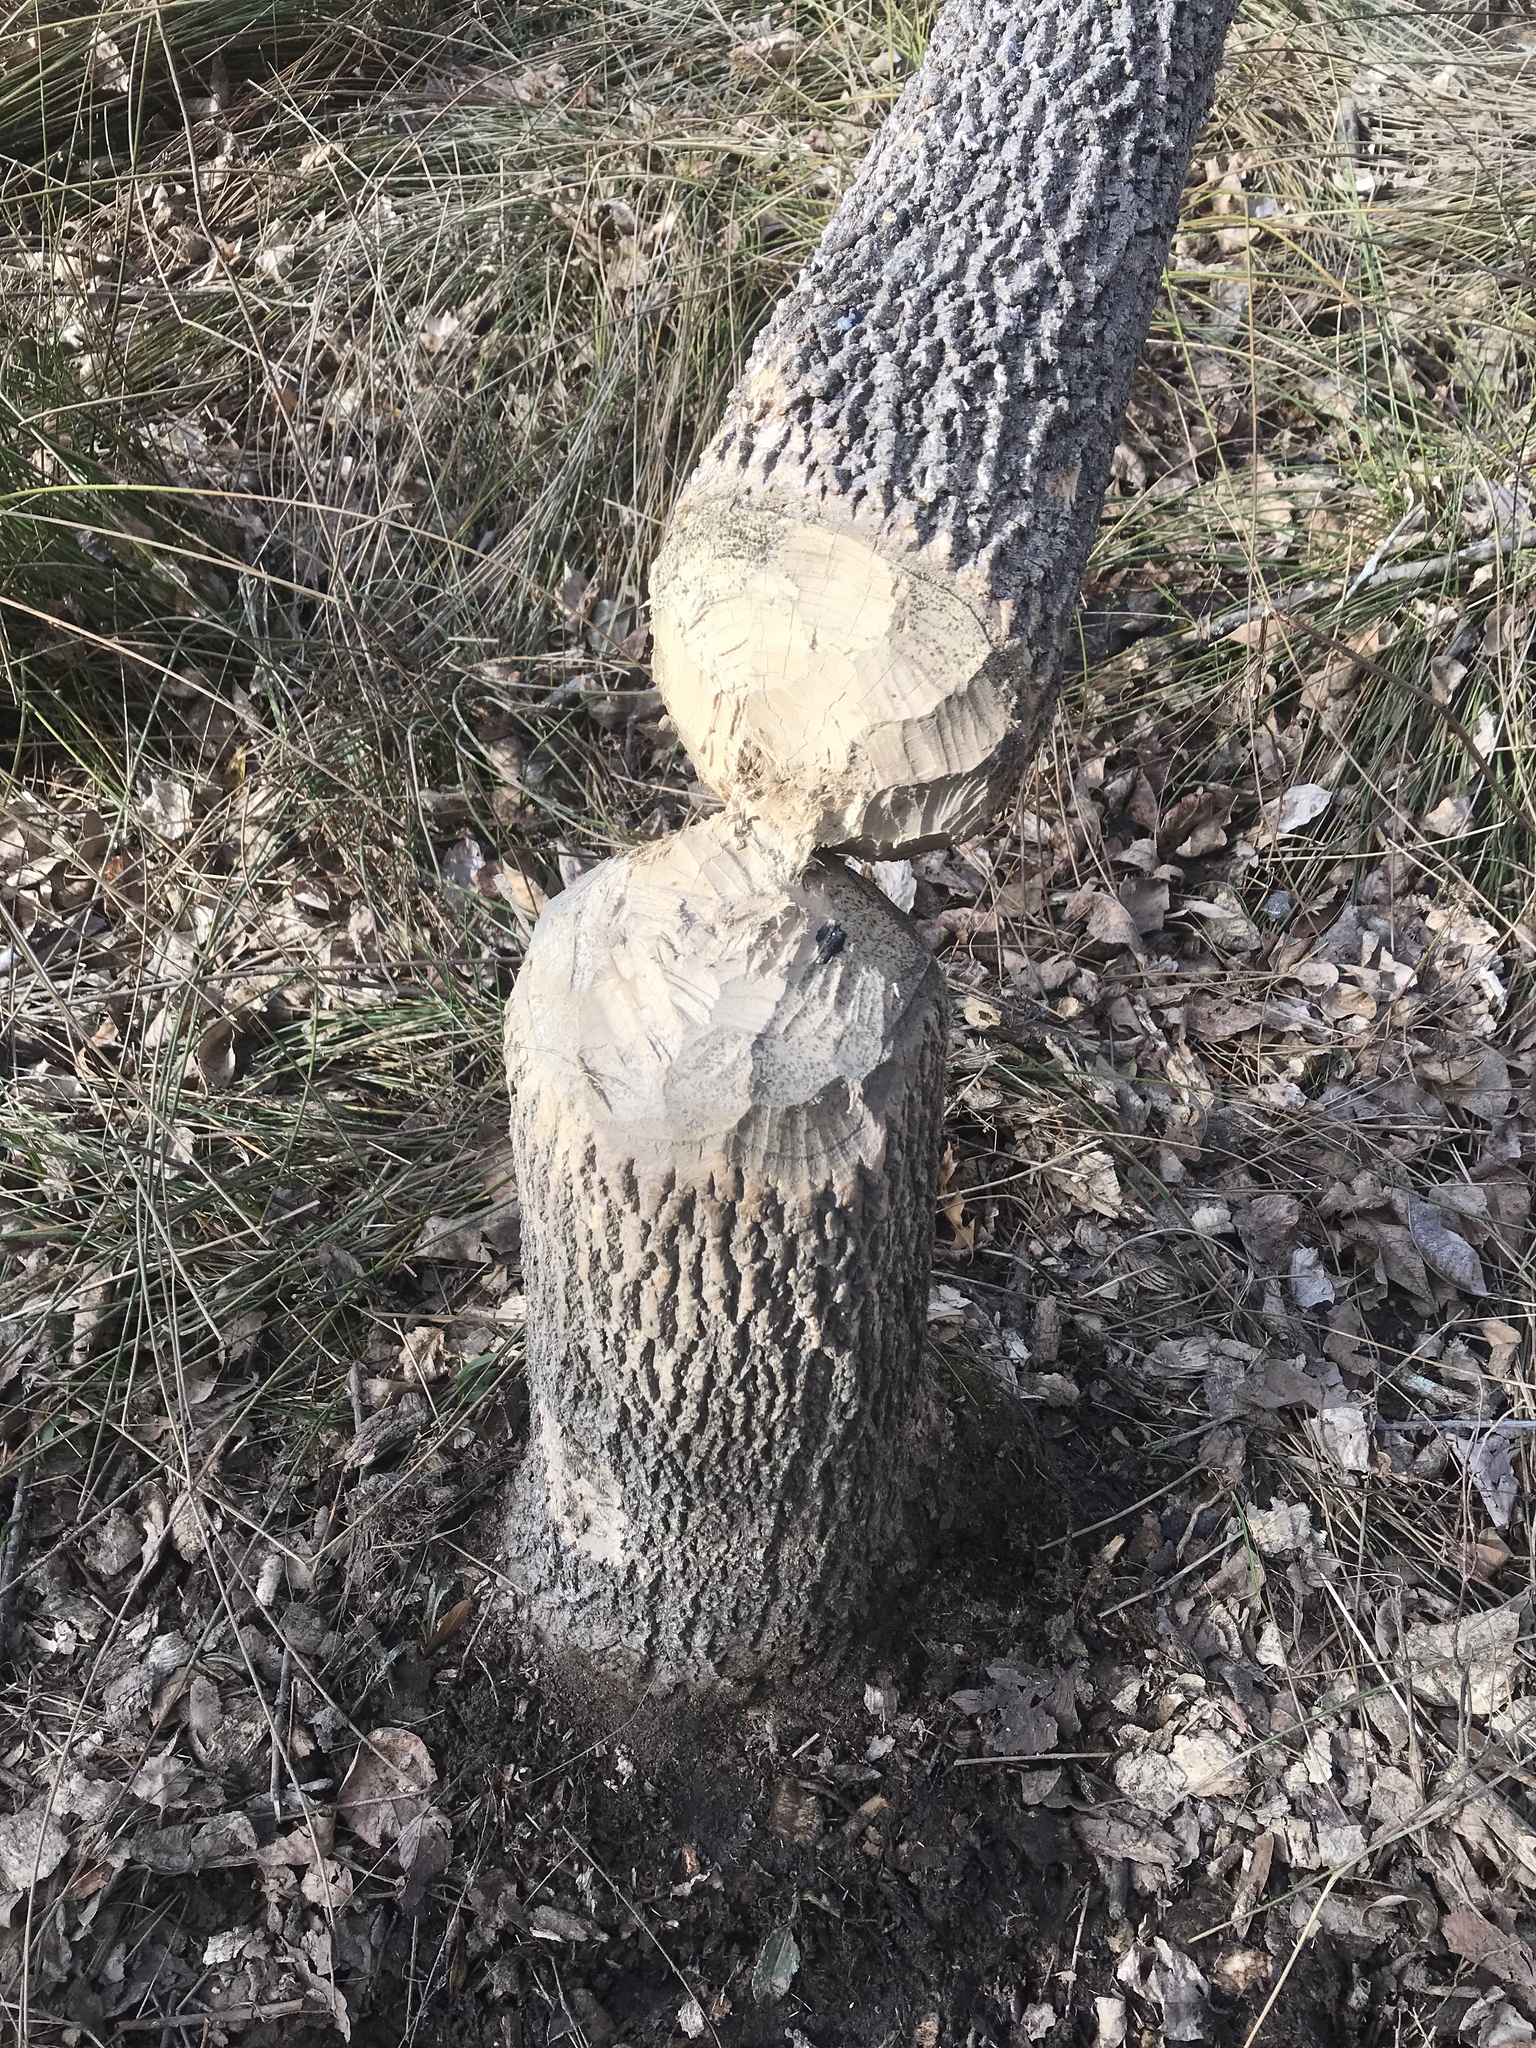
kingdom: Animalia
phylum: Chordata
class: Mammalia
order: Rodentia
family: Castoridae
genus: Castor
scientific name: Castor canadensis
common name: American beaver
